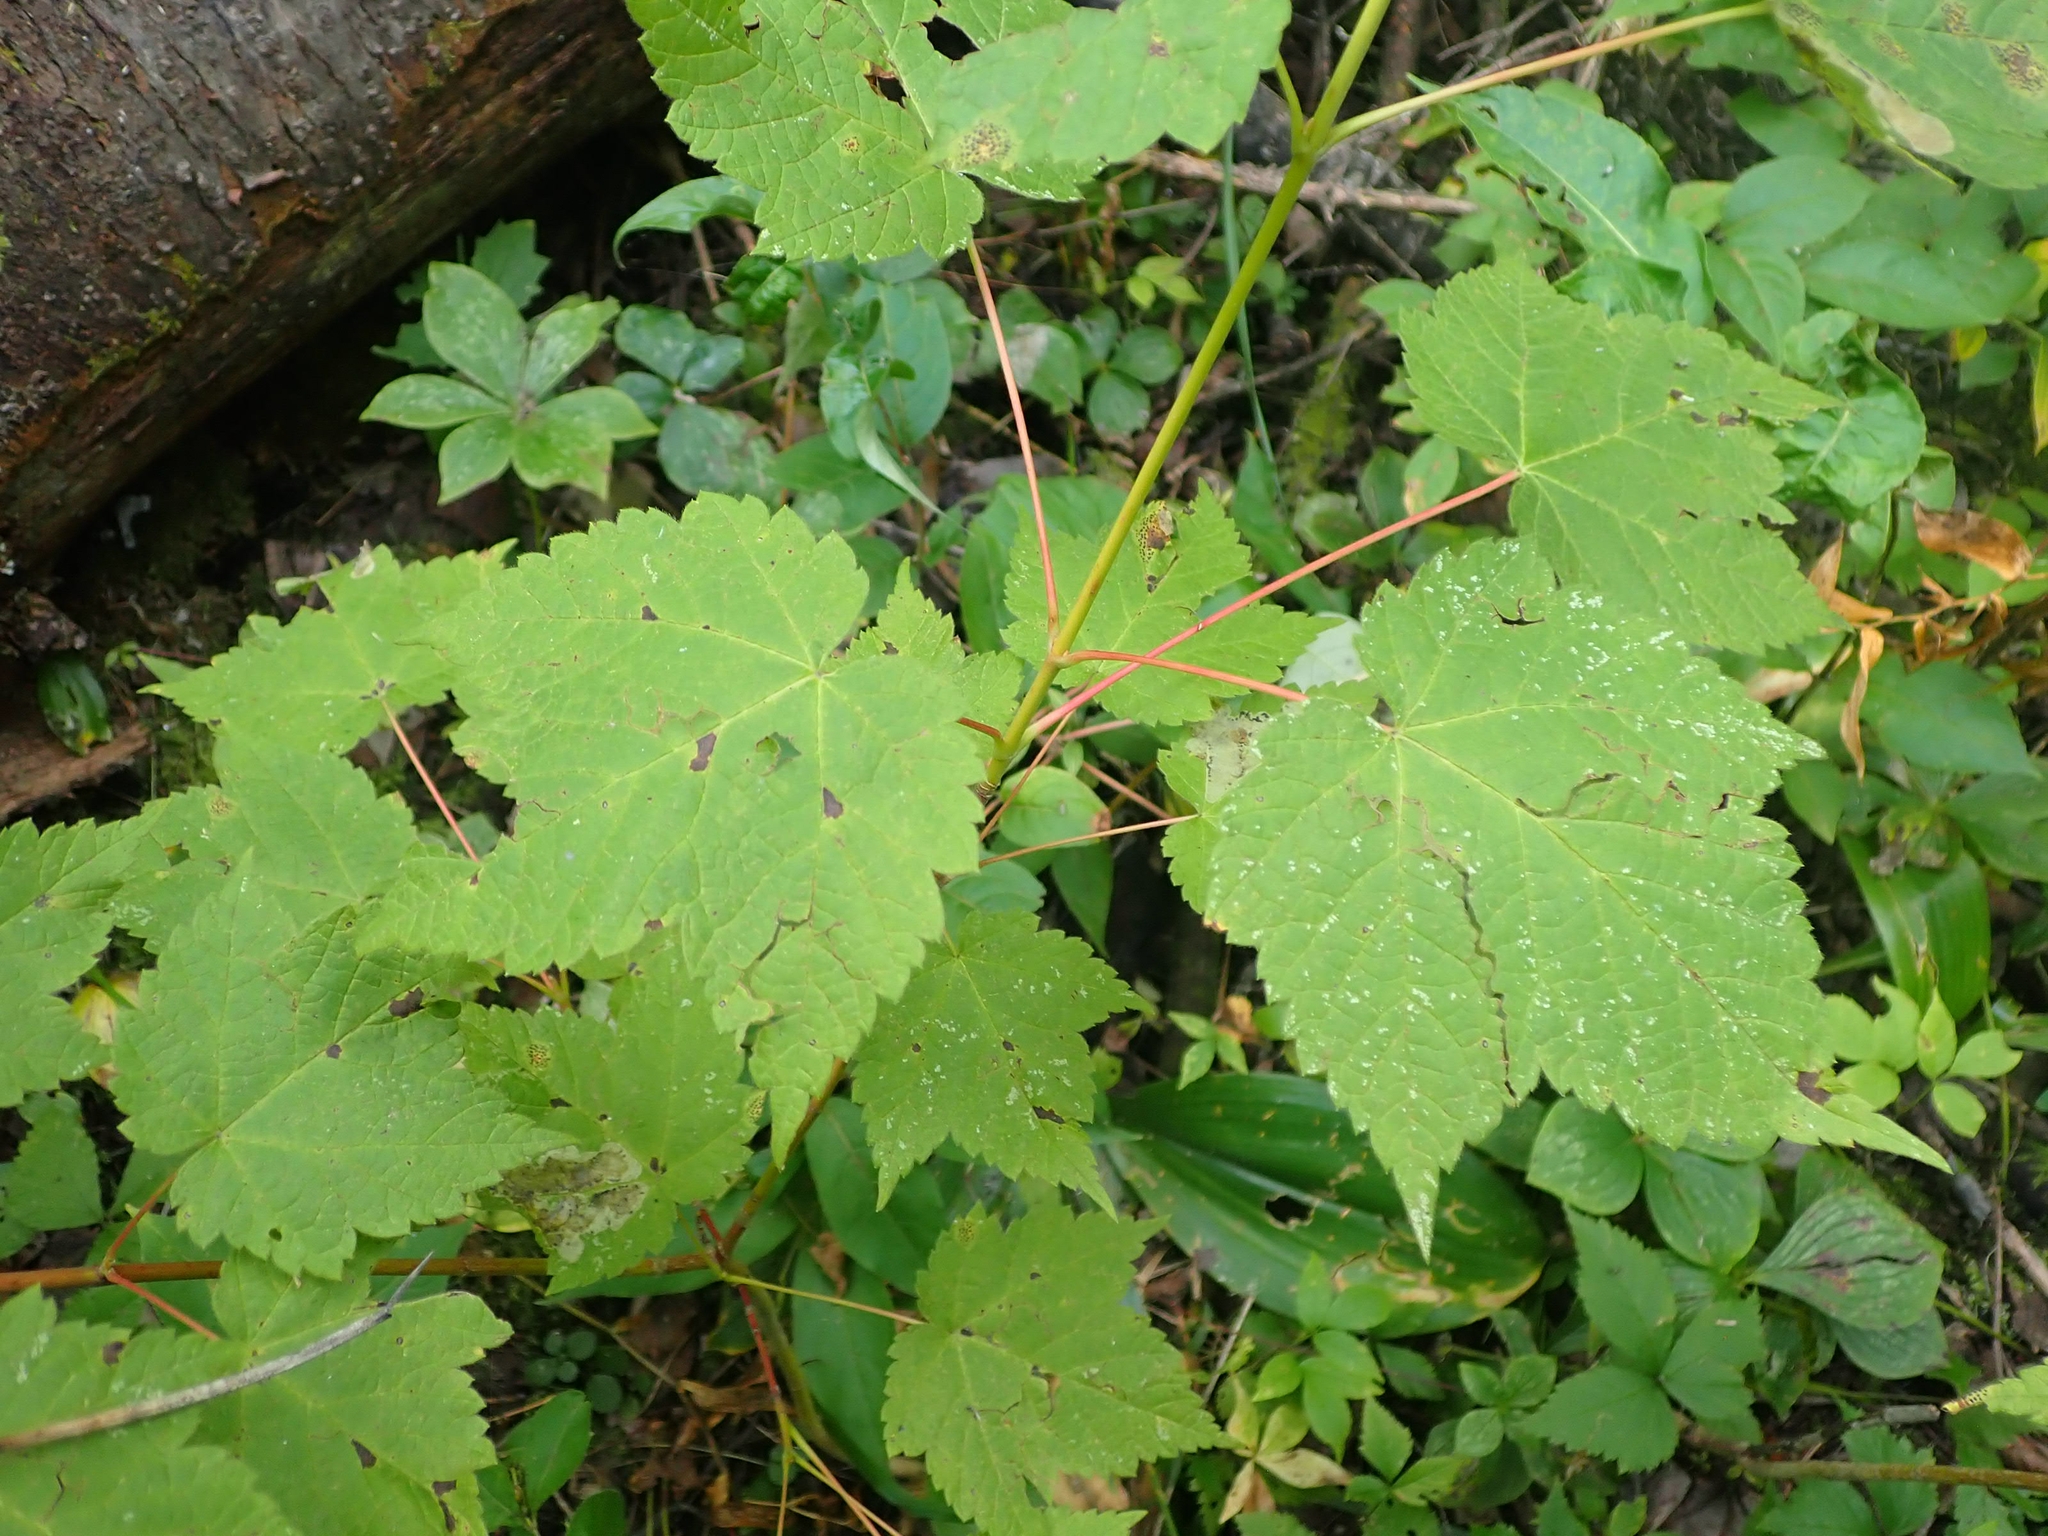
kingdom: Plantae
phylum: Tracheophyta
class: Magnoliopsida
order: Sapindales
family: Sapindaceae
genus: Acer
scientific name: Acer spicatum
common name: Mountain maple
